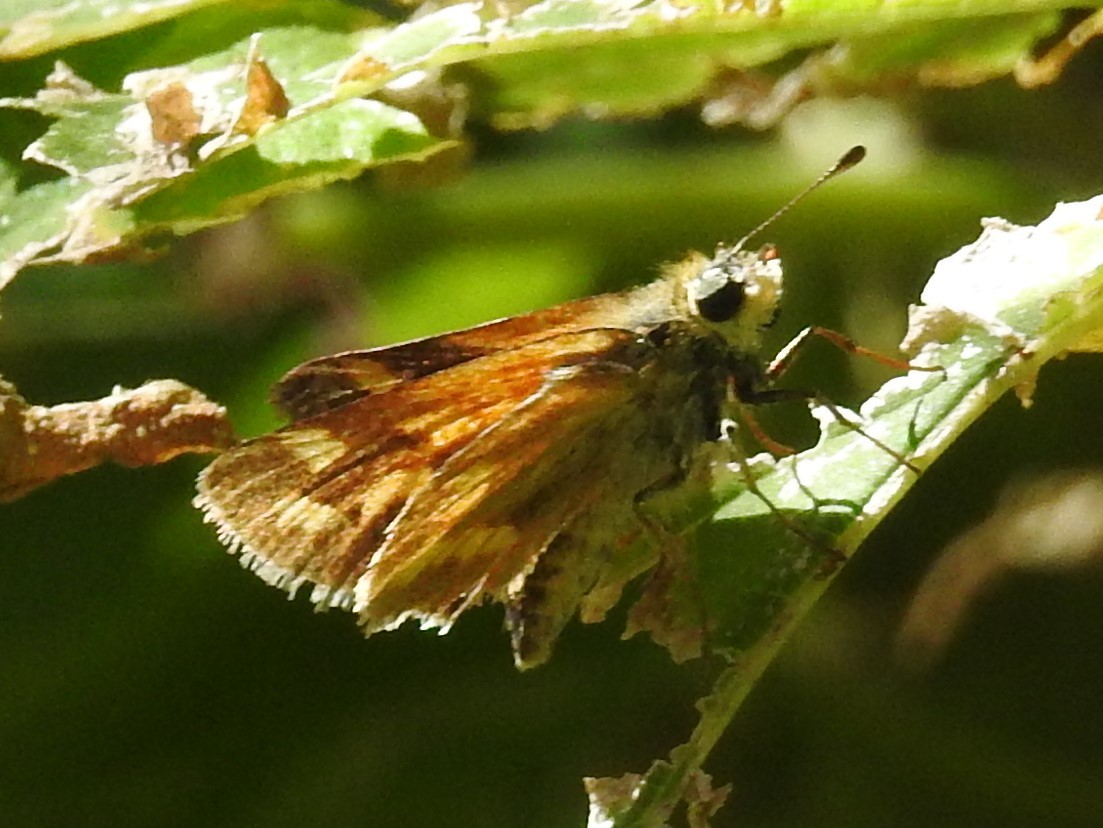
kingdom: Animalia
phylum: Arthropoda
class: Insecta
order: Lepidoptera
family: Hesperiidae
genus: Ochlodes
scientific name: Ochlodes sylvanoides
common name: Woodland skipper
